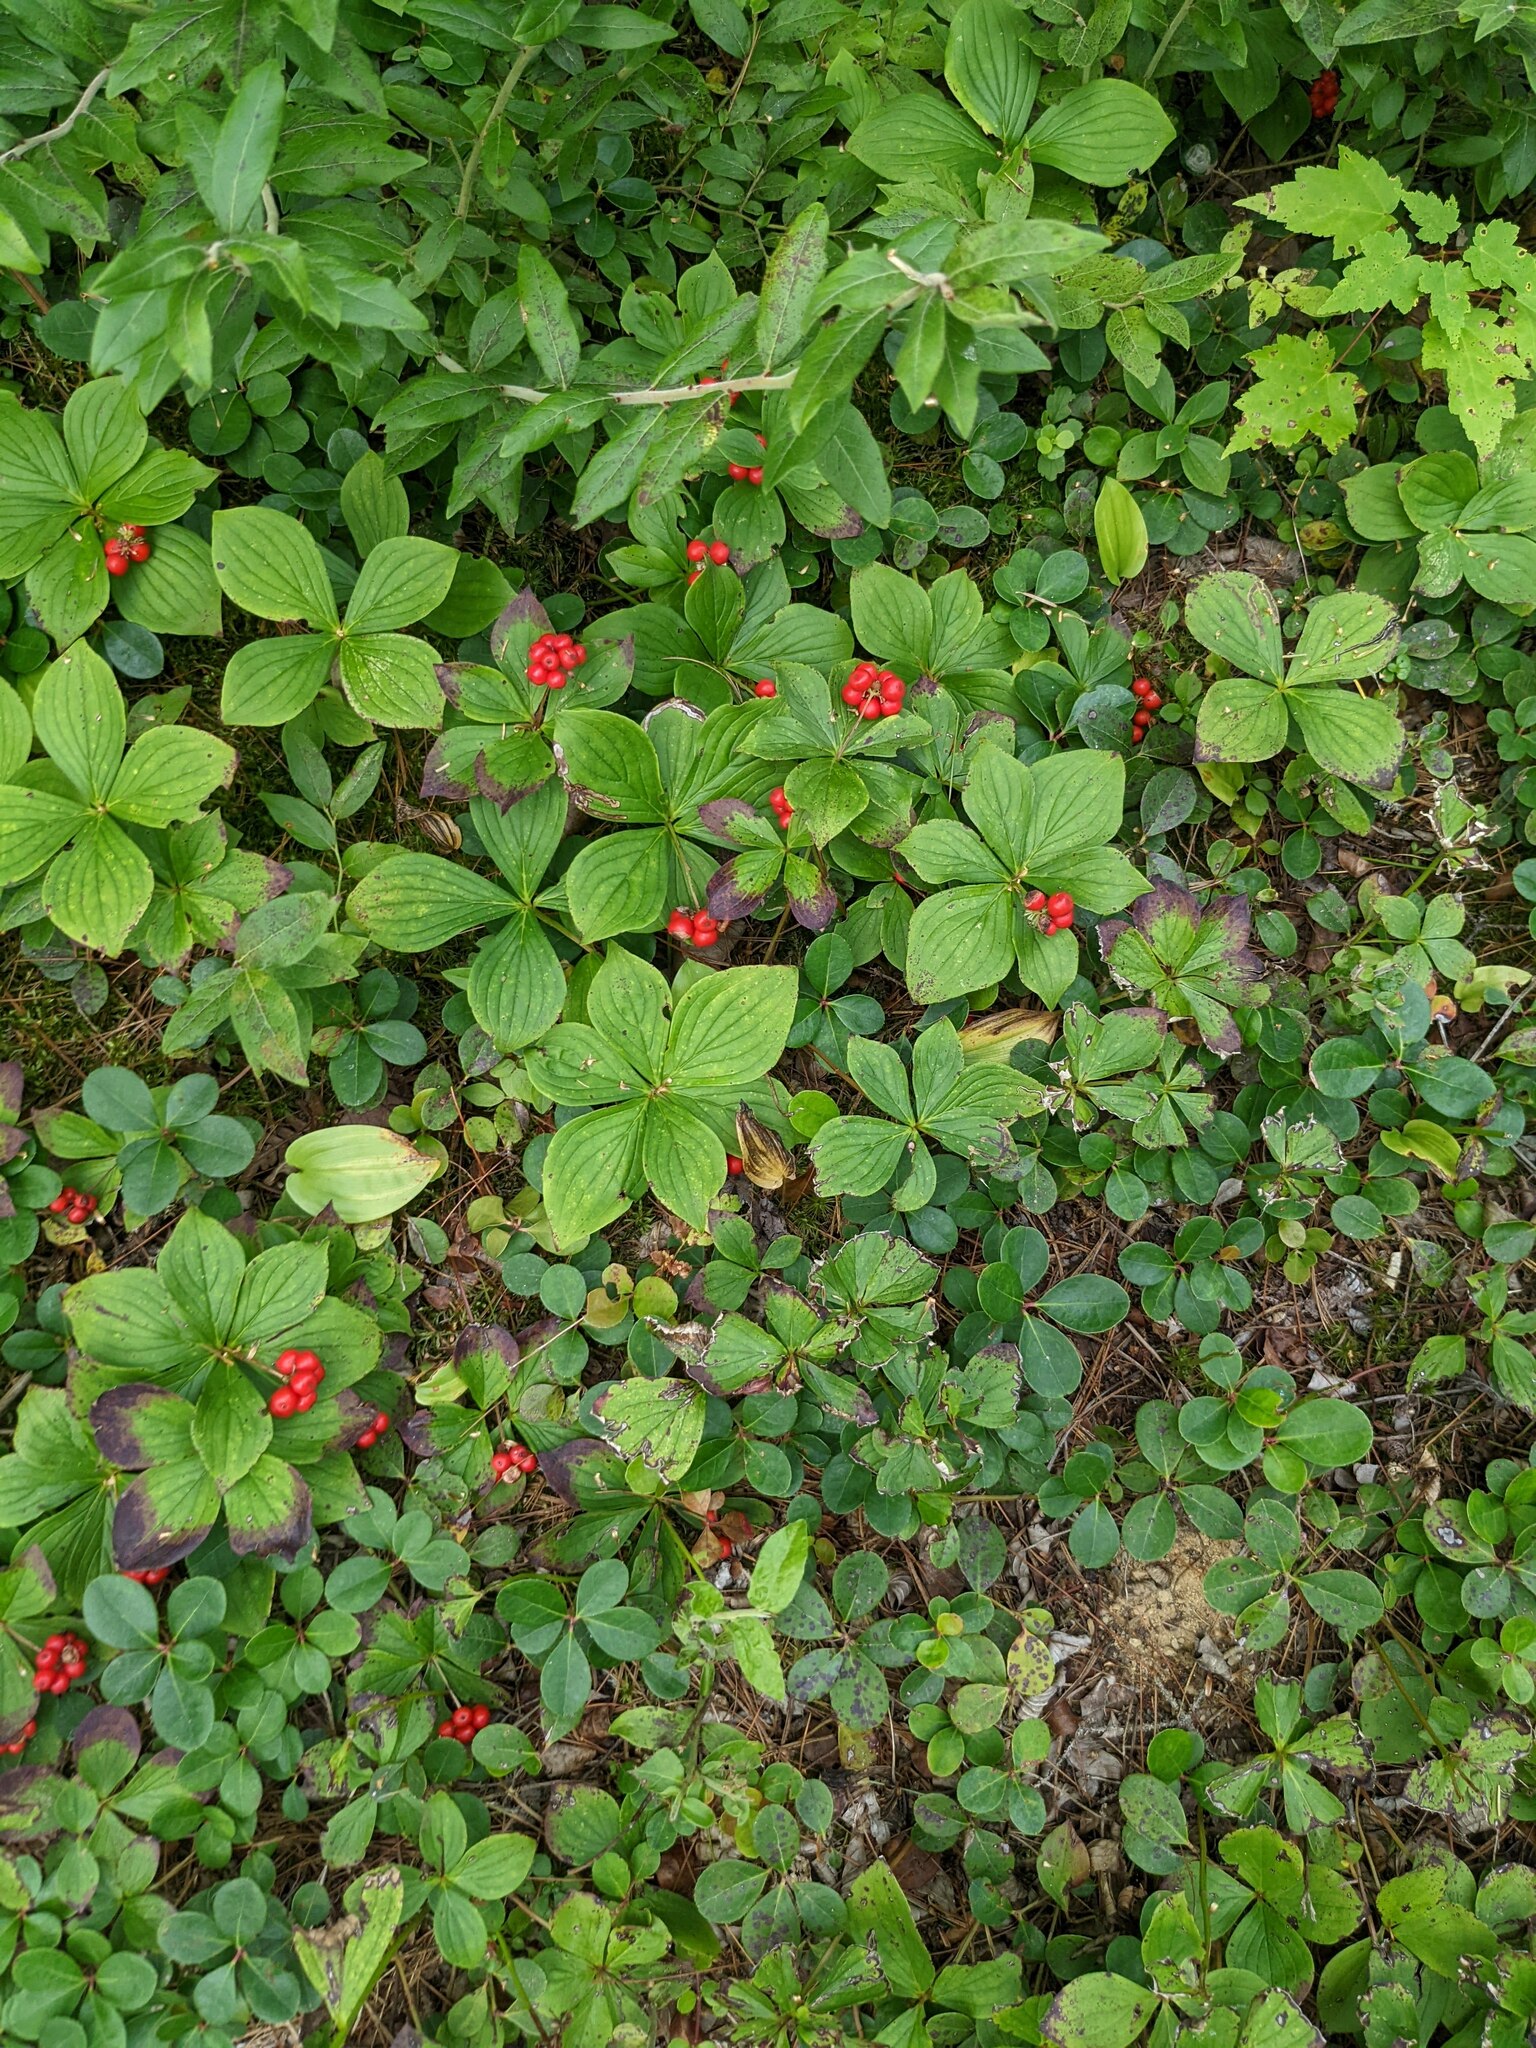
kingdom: Plantae
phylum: Tracheophyta
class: Magnoliopsida
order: Cornales
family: Cornaceae
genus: Cornus
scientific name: Cornus canadensis
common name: Creeping dogwood
